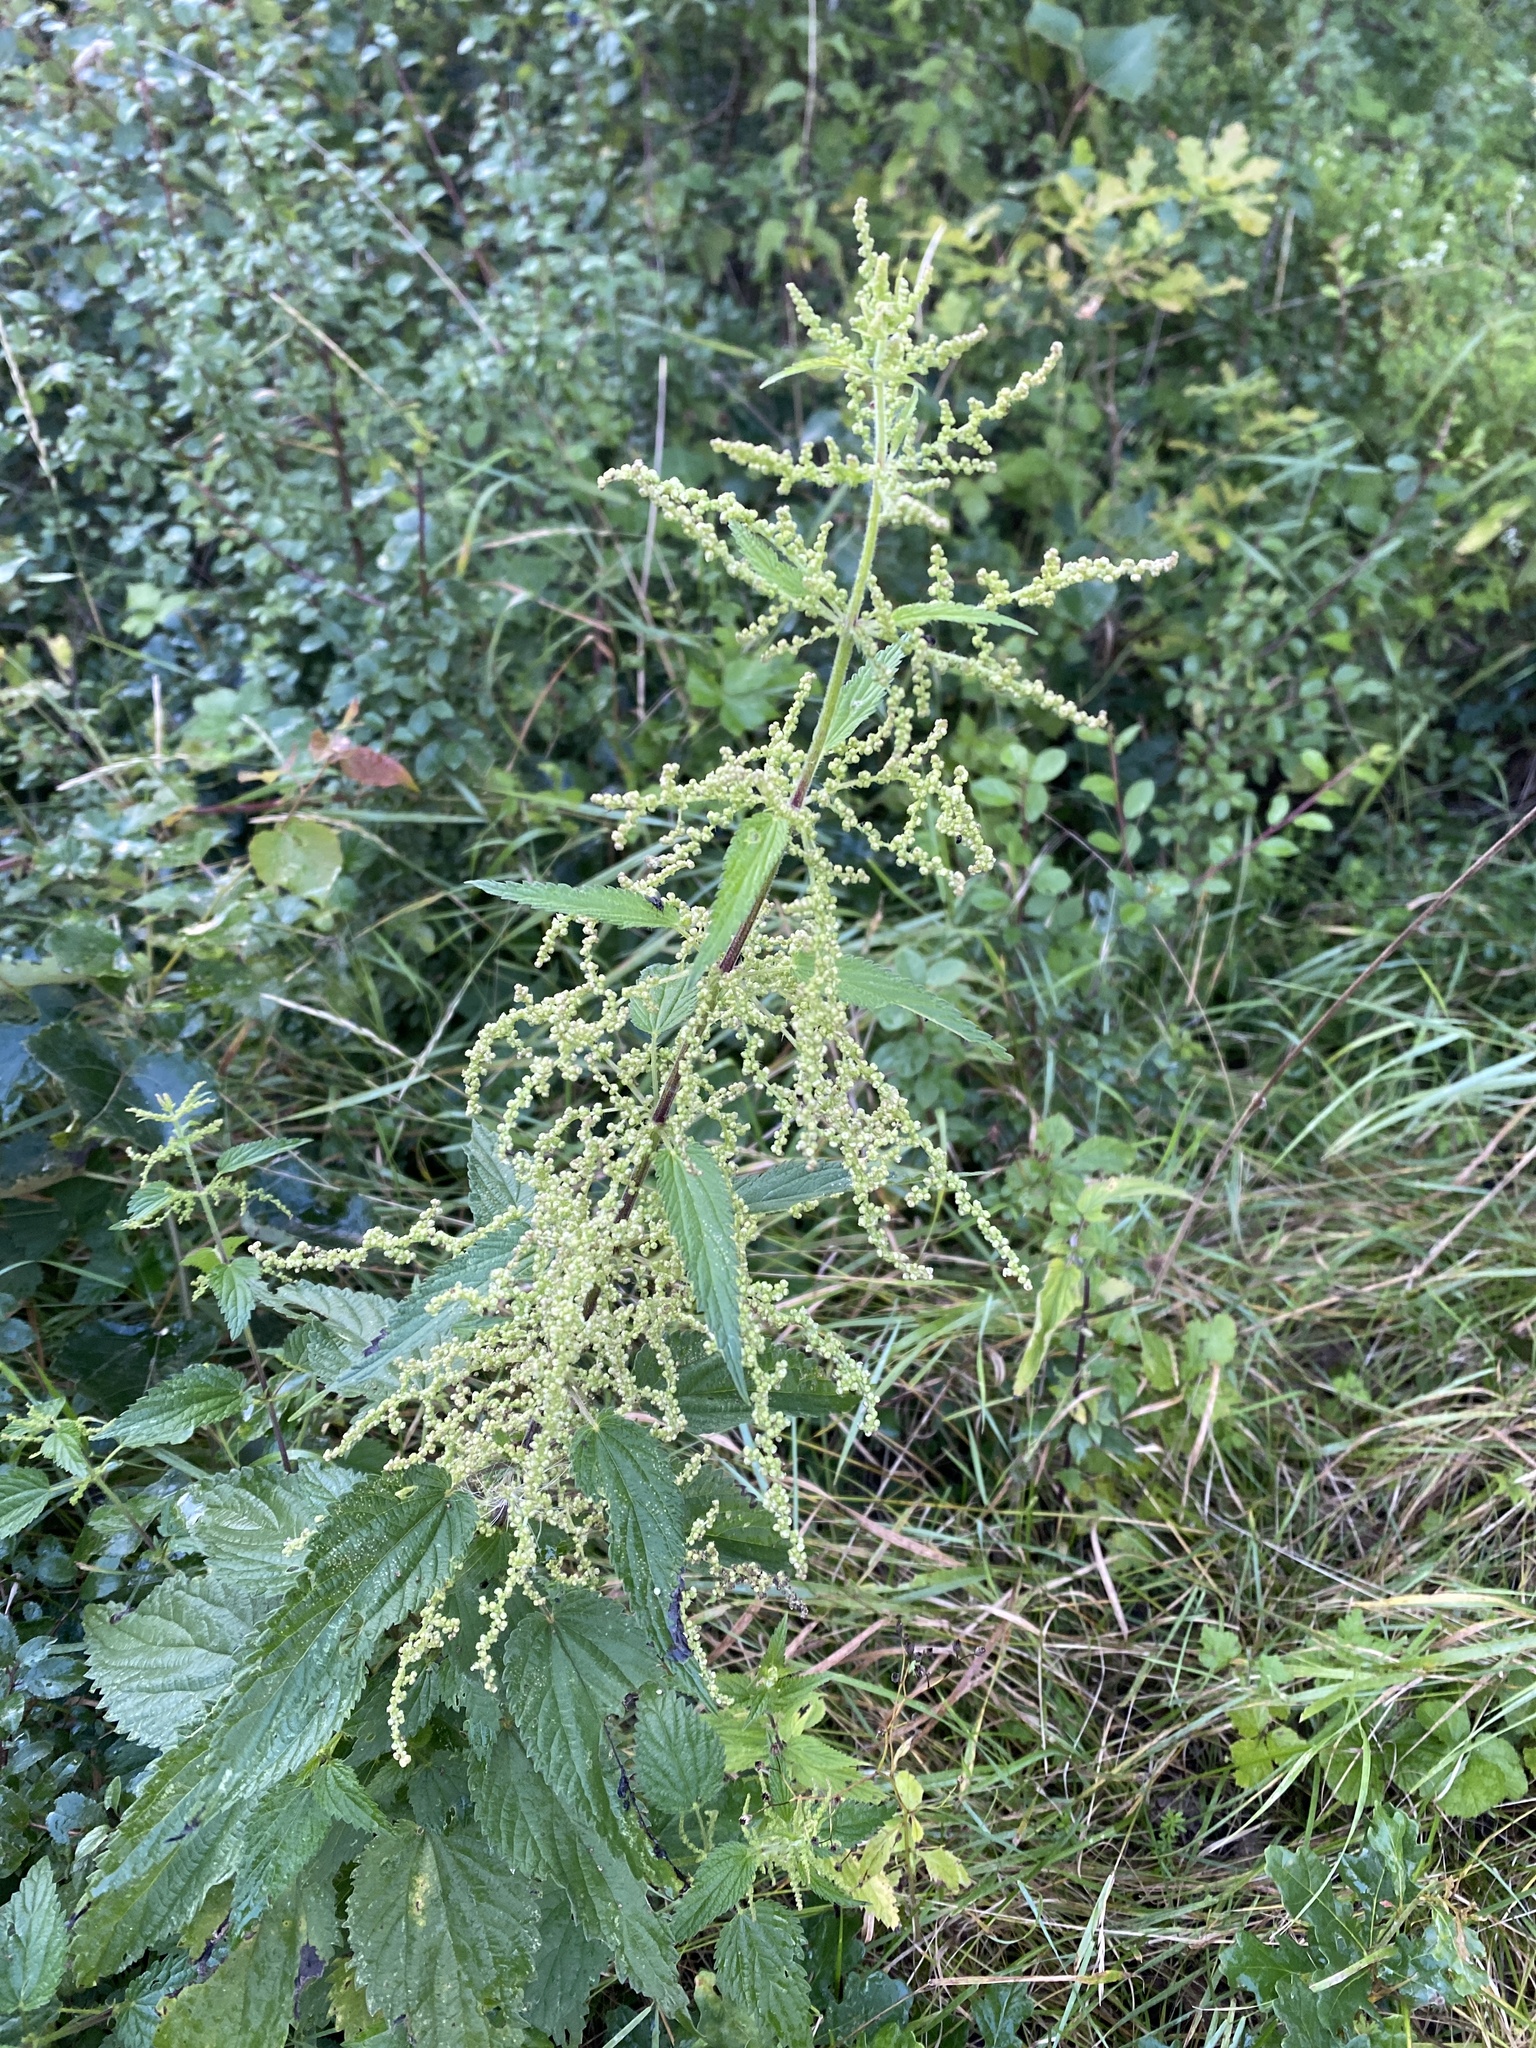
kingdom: Plantae
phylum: Tracheophyta
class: Magnoliopsida
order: Rosales
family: Urticaceae
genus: Urtica
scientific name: Urtica dioica
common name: Common nettle
